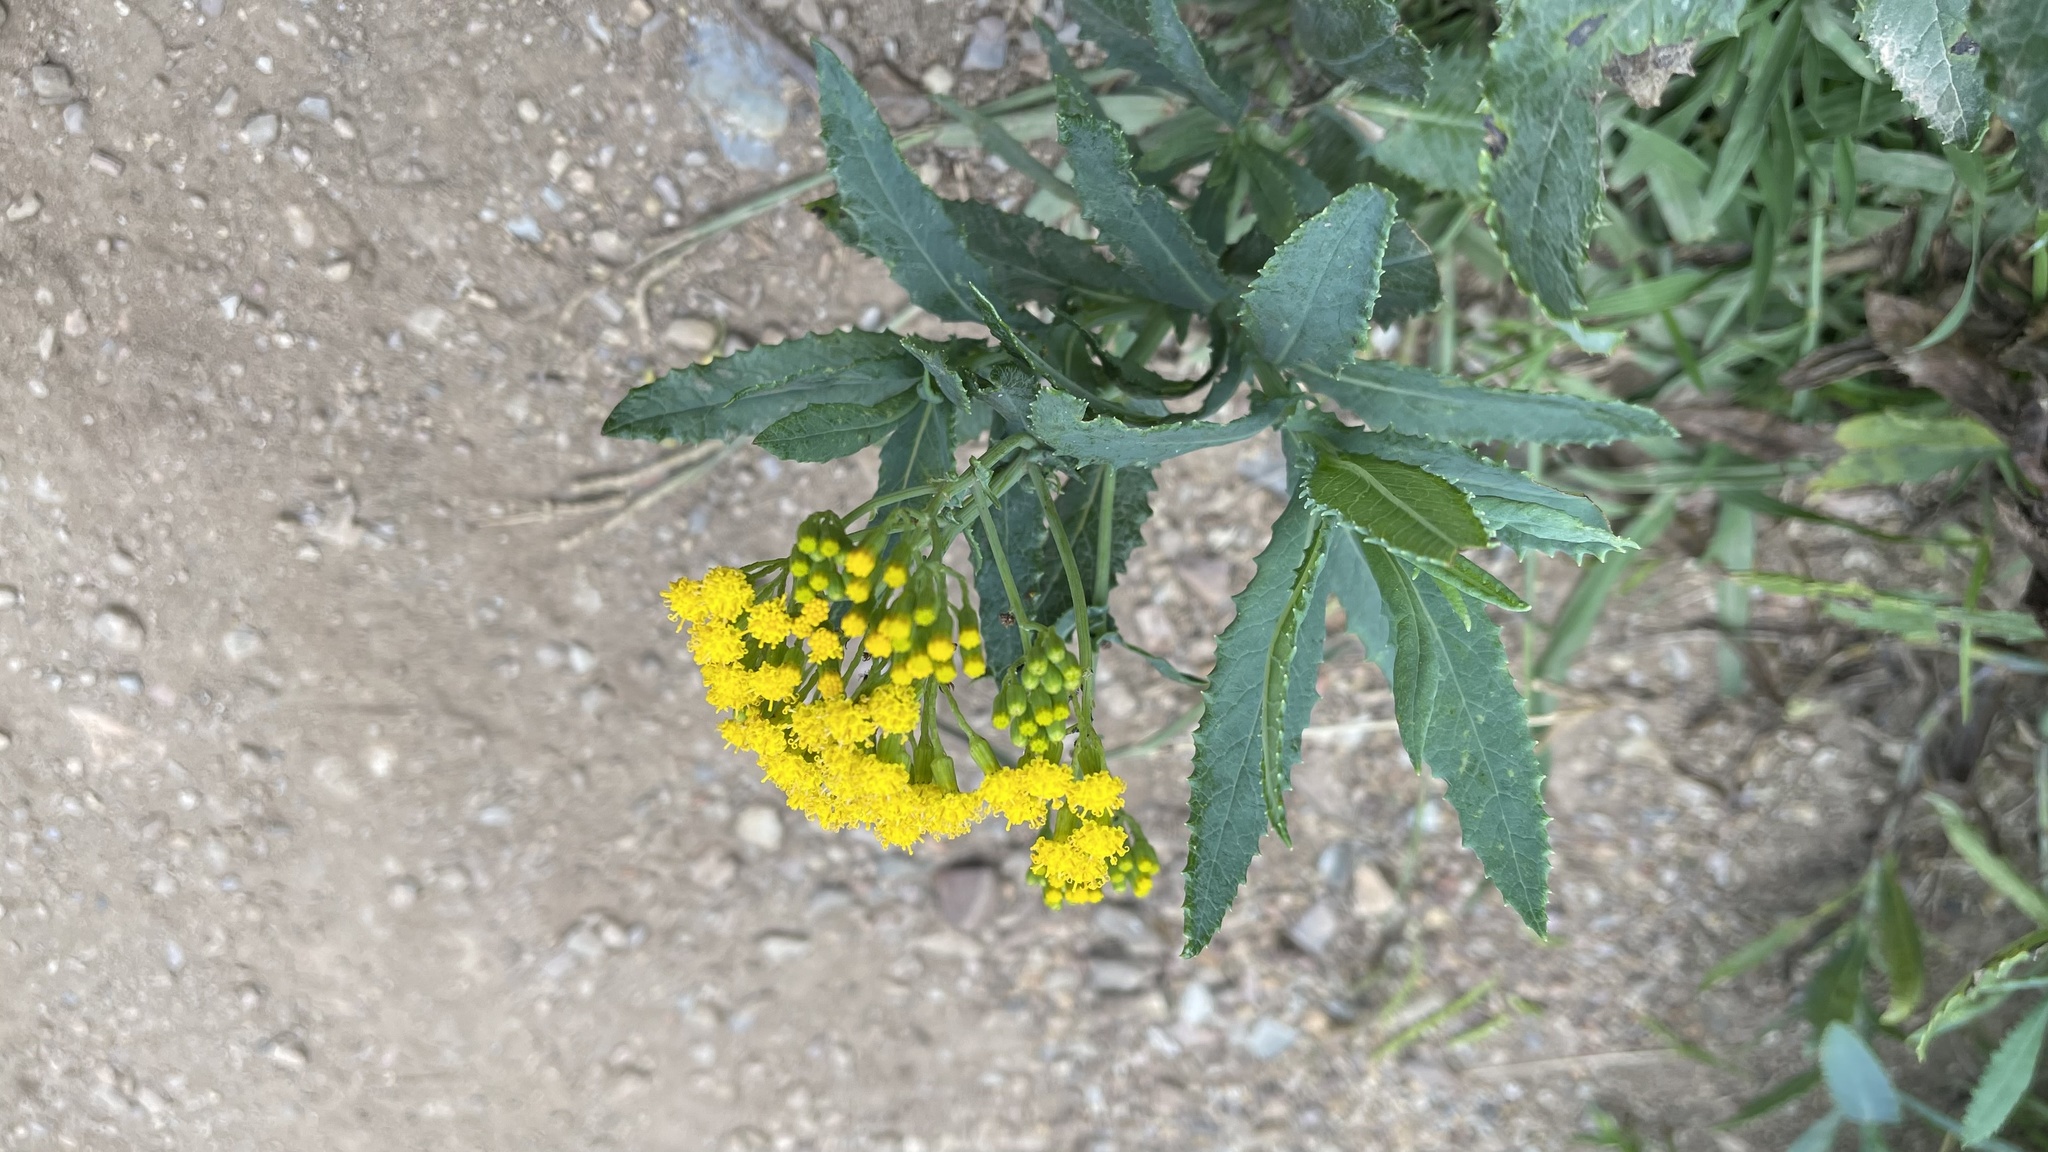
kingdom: Plantae
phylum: Tracheophyta
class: Magnoliopsida
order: Asterales
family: Asteraceae
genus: Senecio
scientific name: Senecio odoratus
